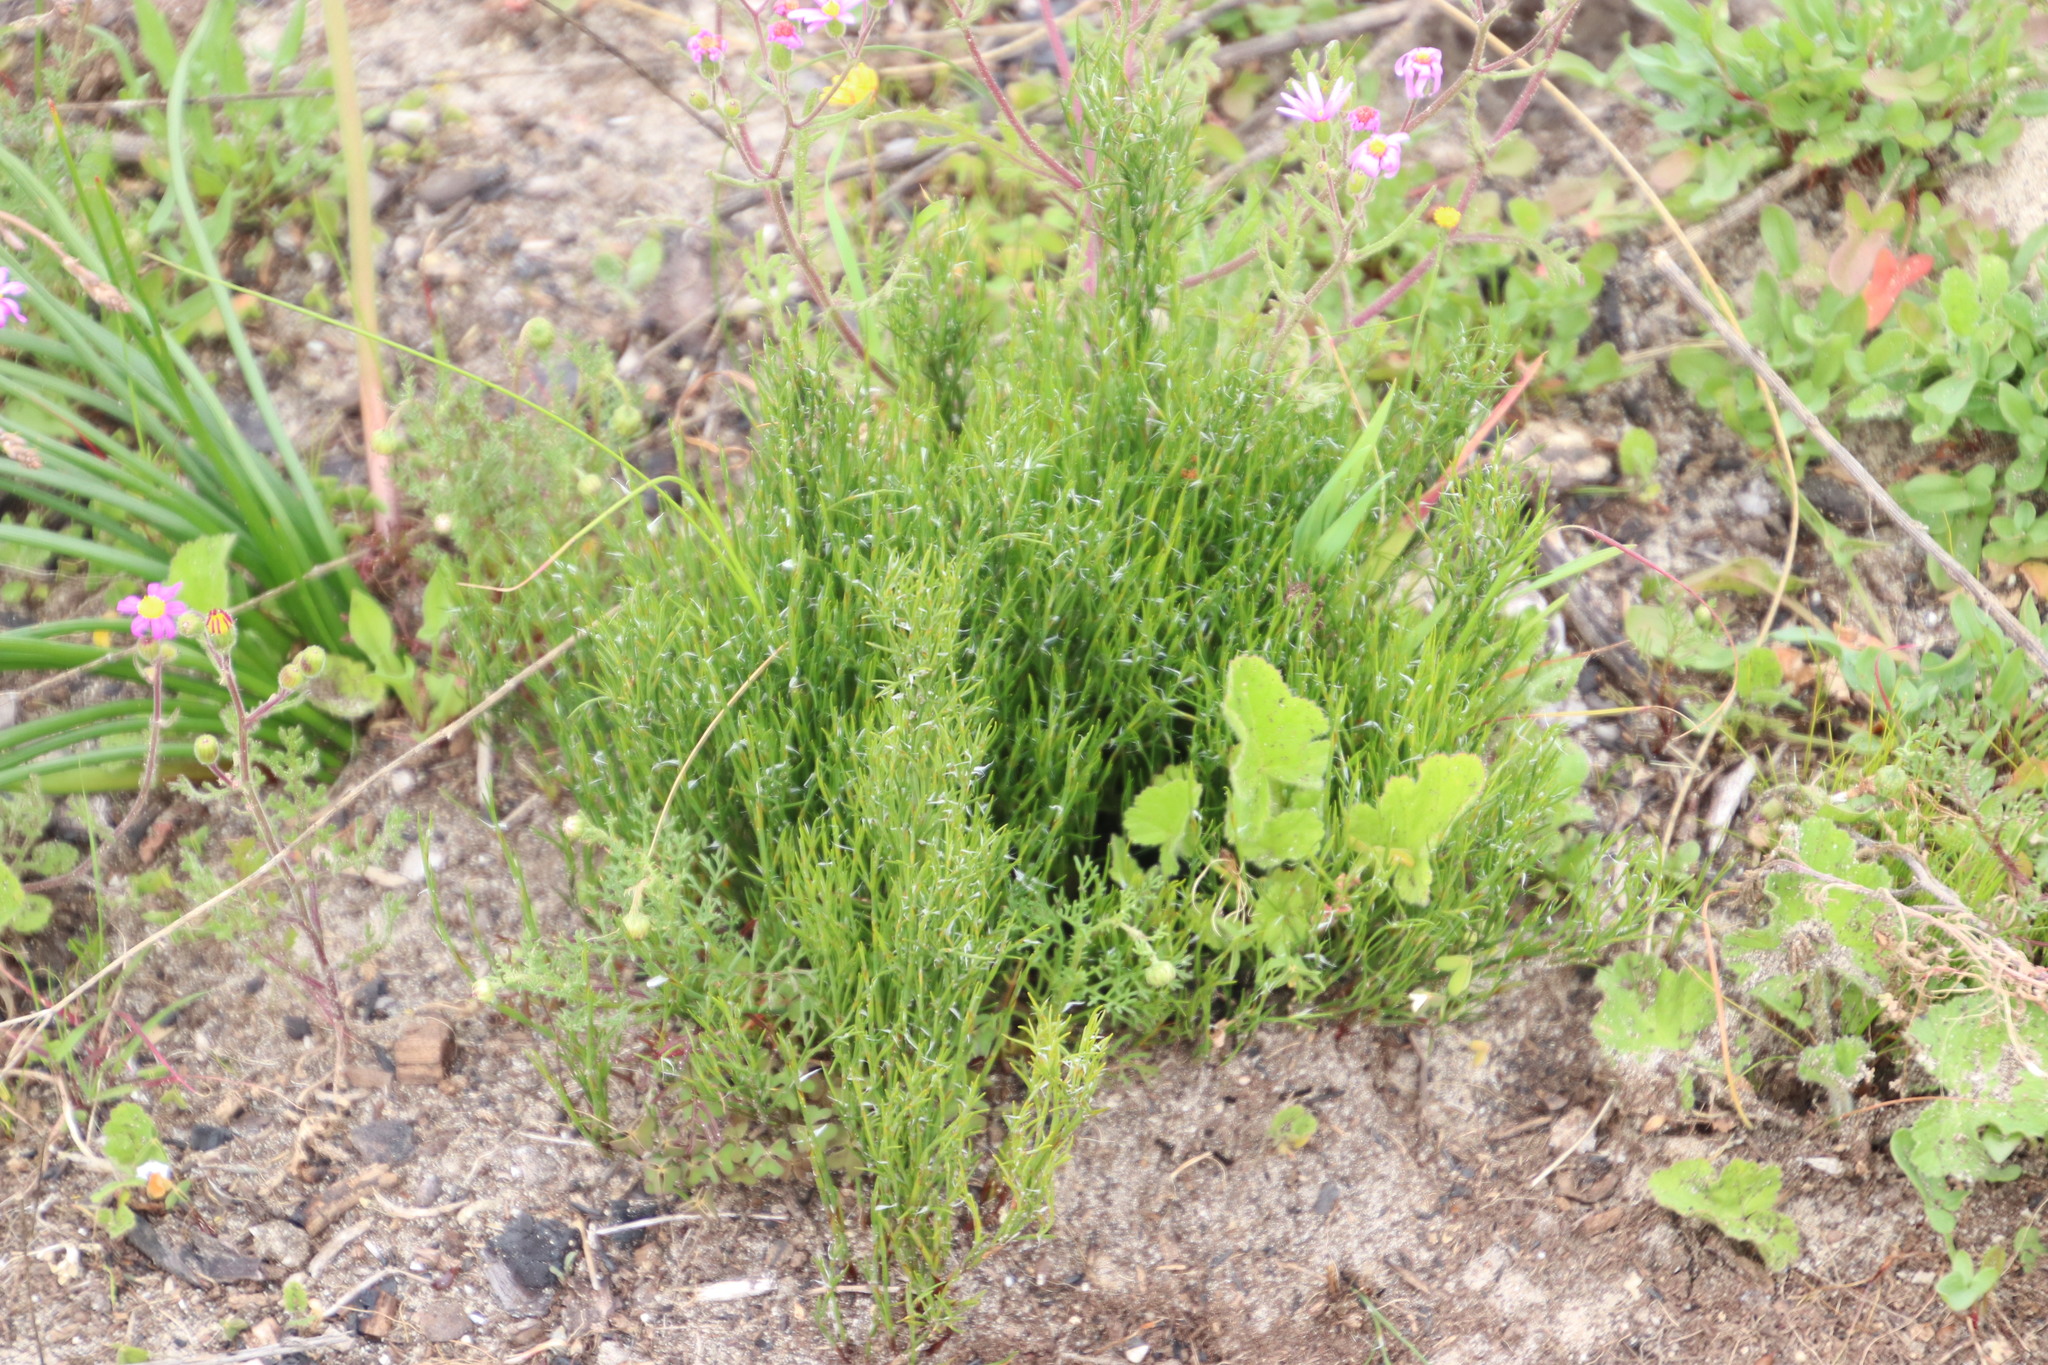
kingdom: Plantae
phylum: Tracheophyta
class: Liliopsida
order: Poales
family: Restionaceae
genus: Restio
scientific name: Restio capensis
